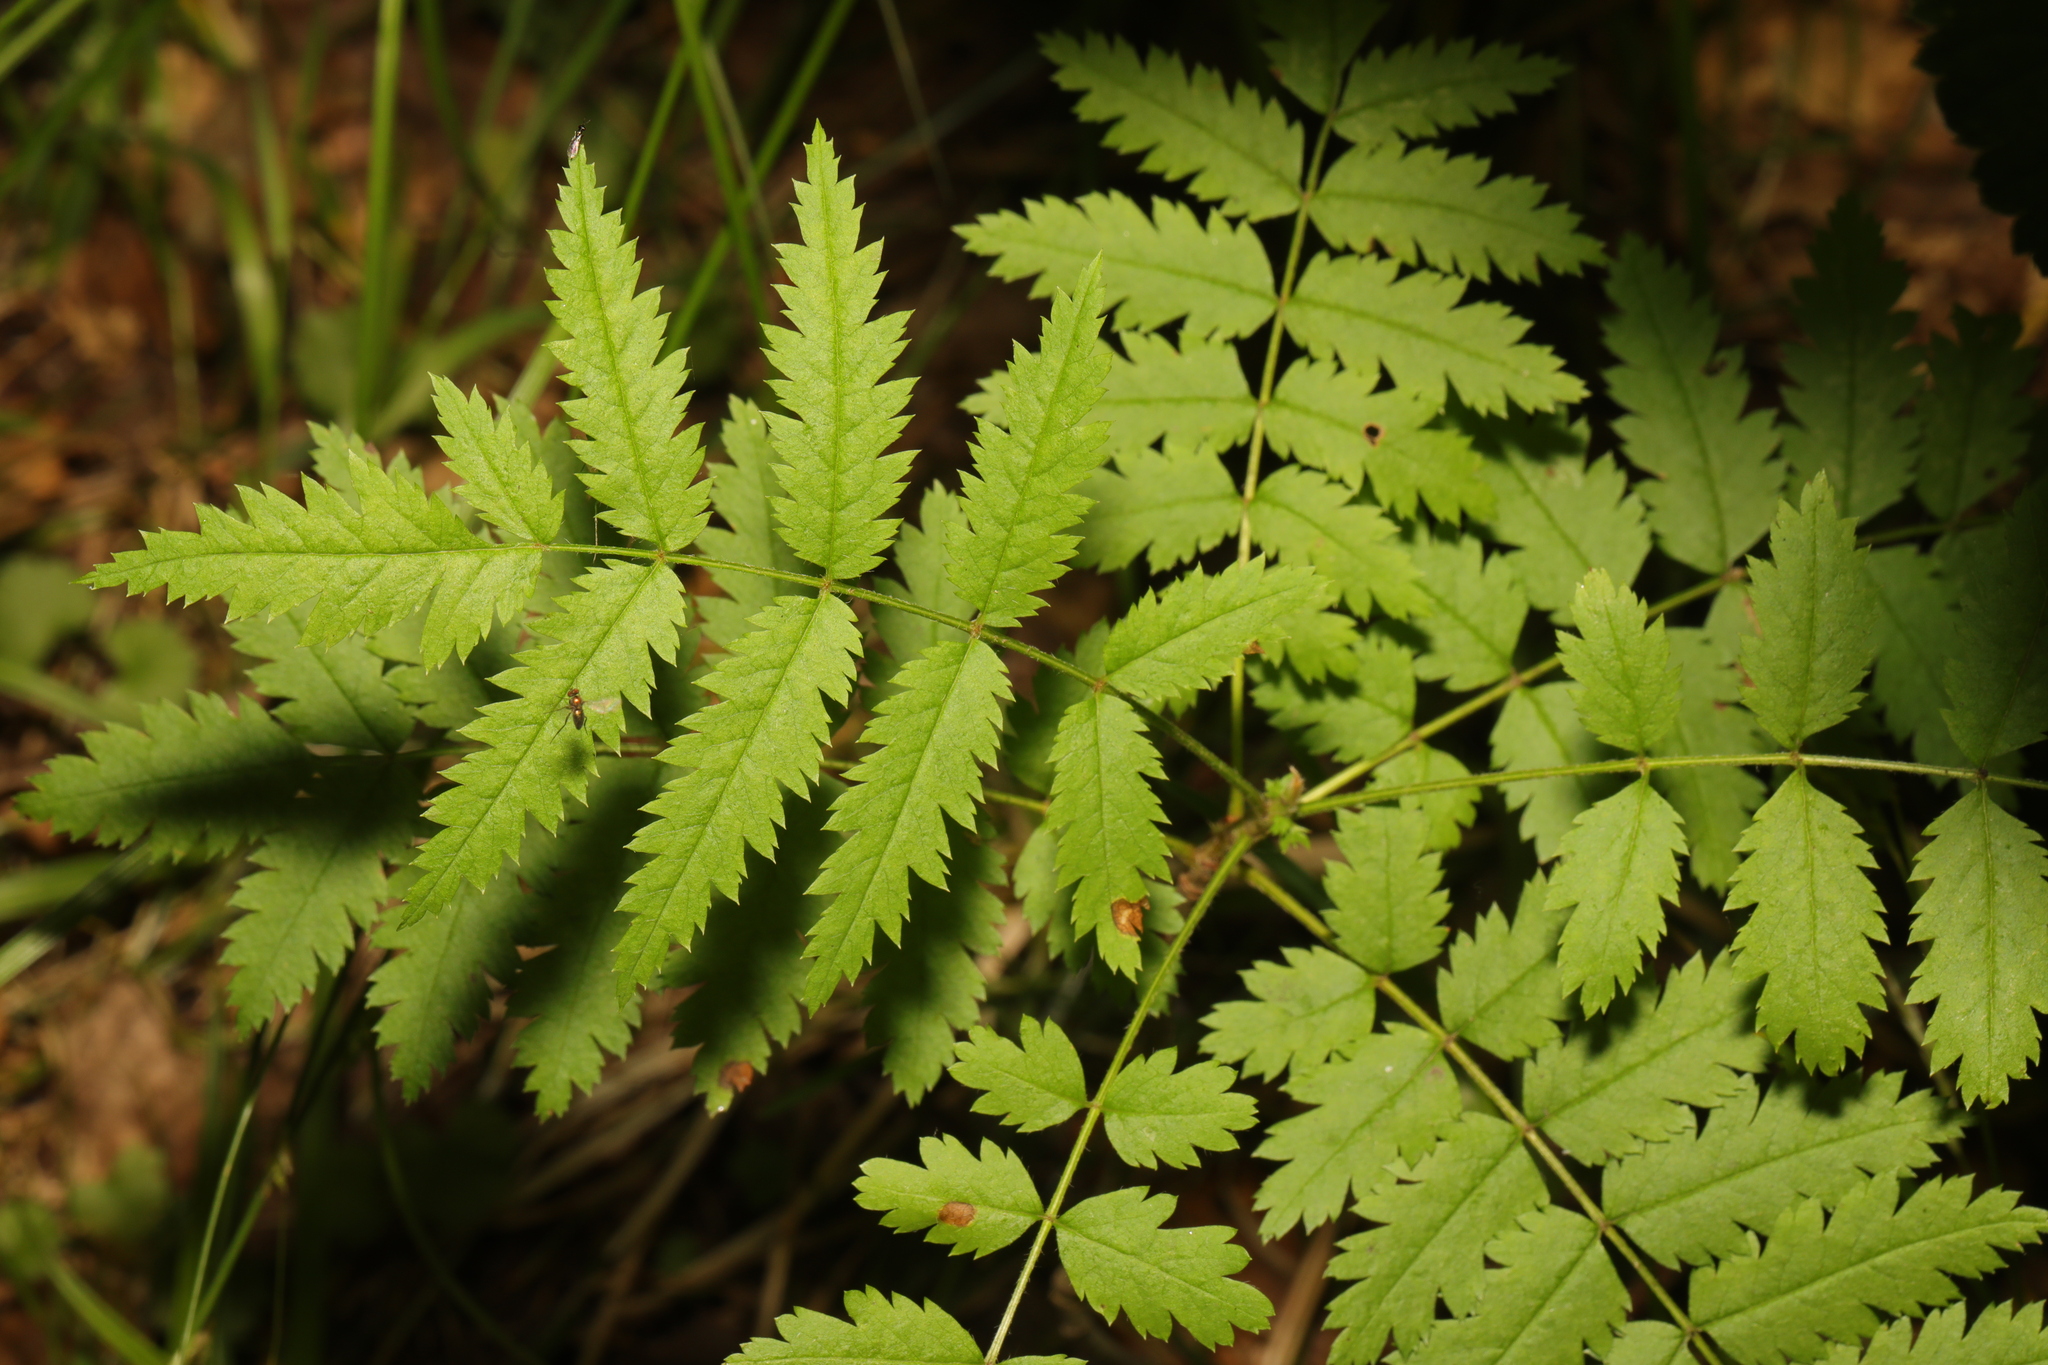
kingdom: Plantae
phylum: Tracheophyta
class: Magnoliopsida
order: Rosales
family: Rosaceae
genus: Sorbus
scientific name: Sorbus aucuparia
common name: Rowan
